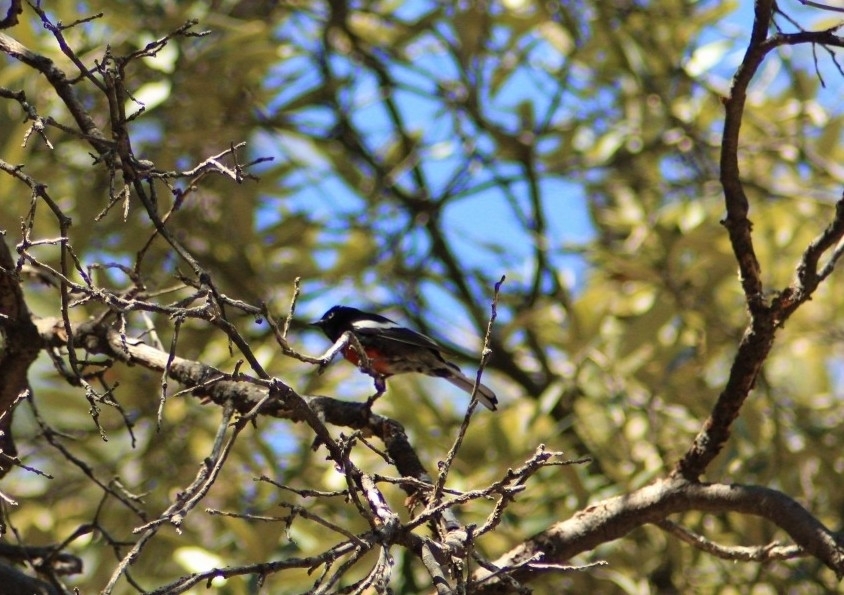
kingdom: Animalia
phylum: Chordata
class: Aves
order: Passeriformes
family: Parulidae
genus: Myioborus
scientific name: Myioborus pictus
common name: Painted whitestart
